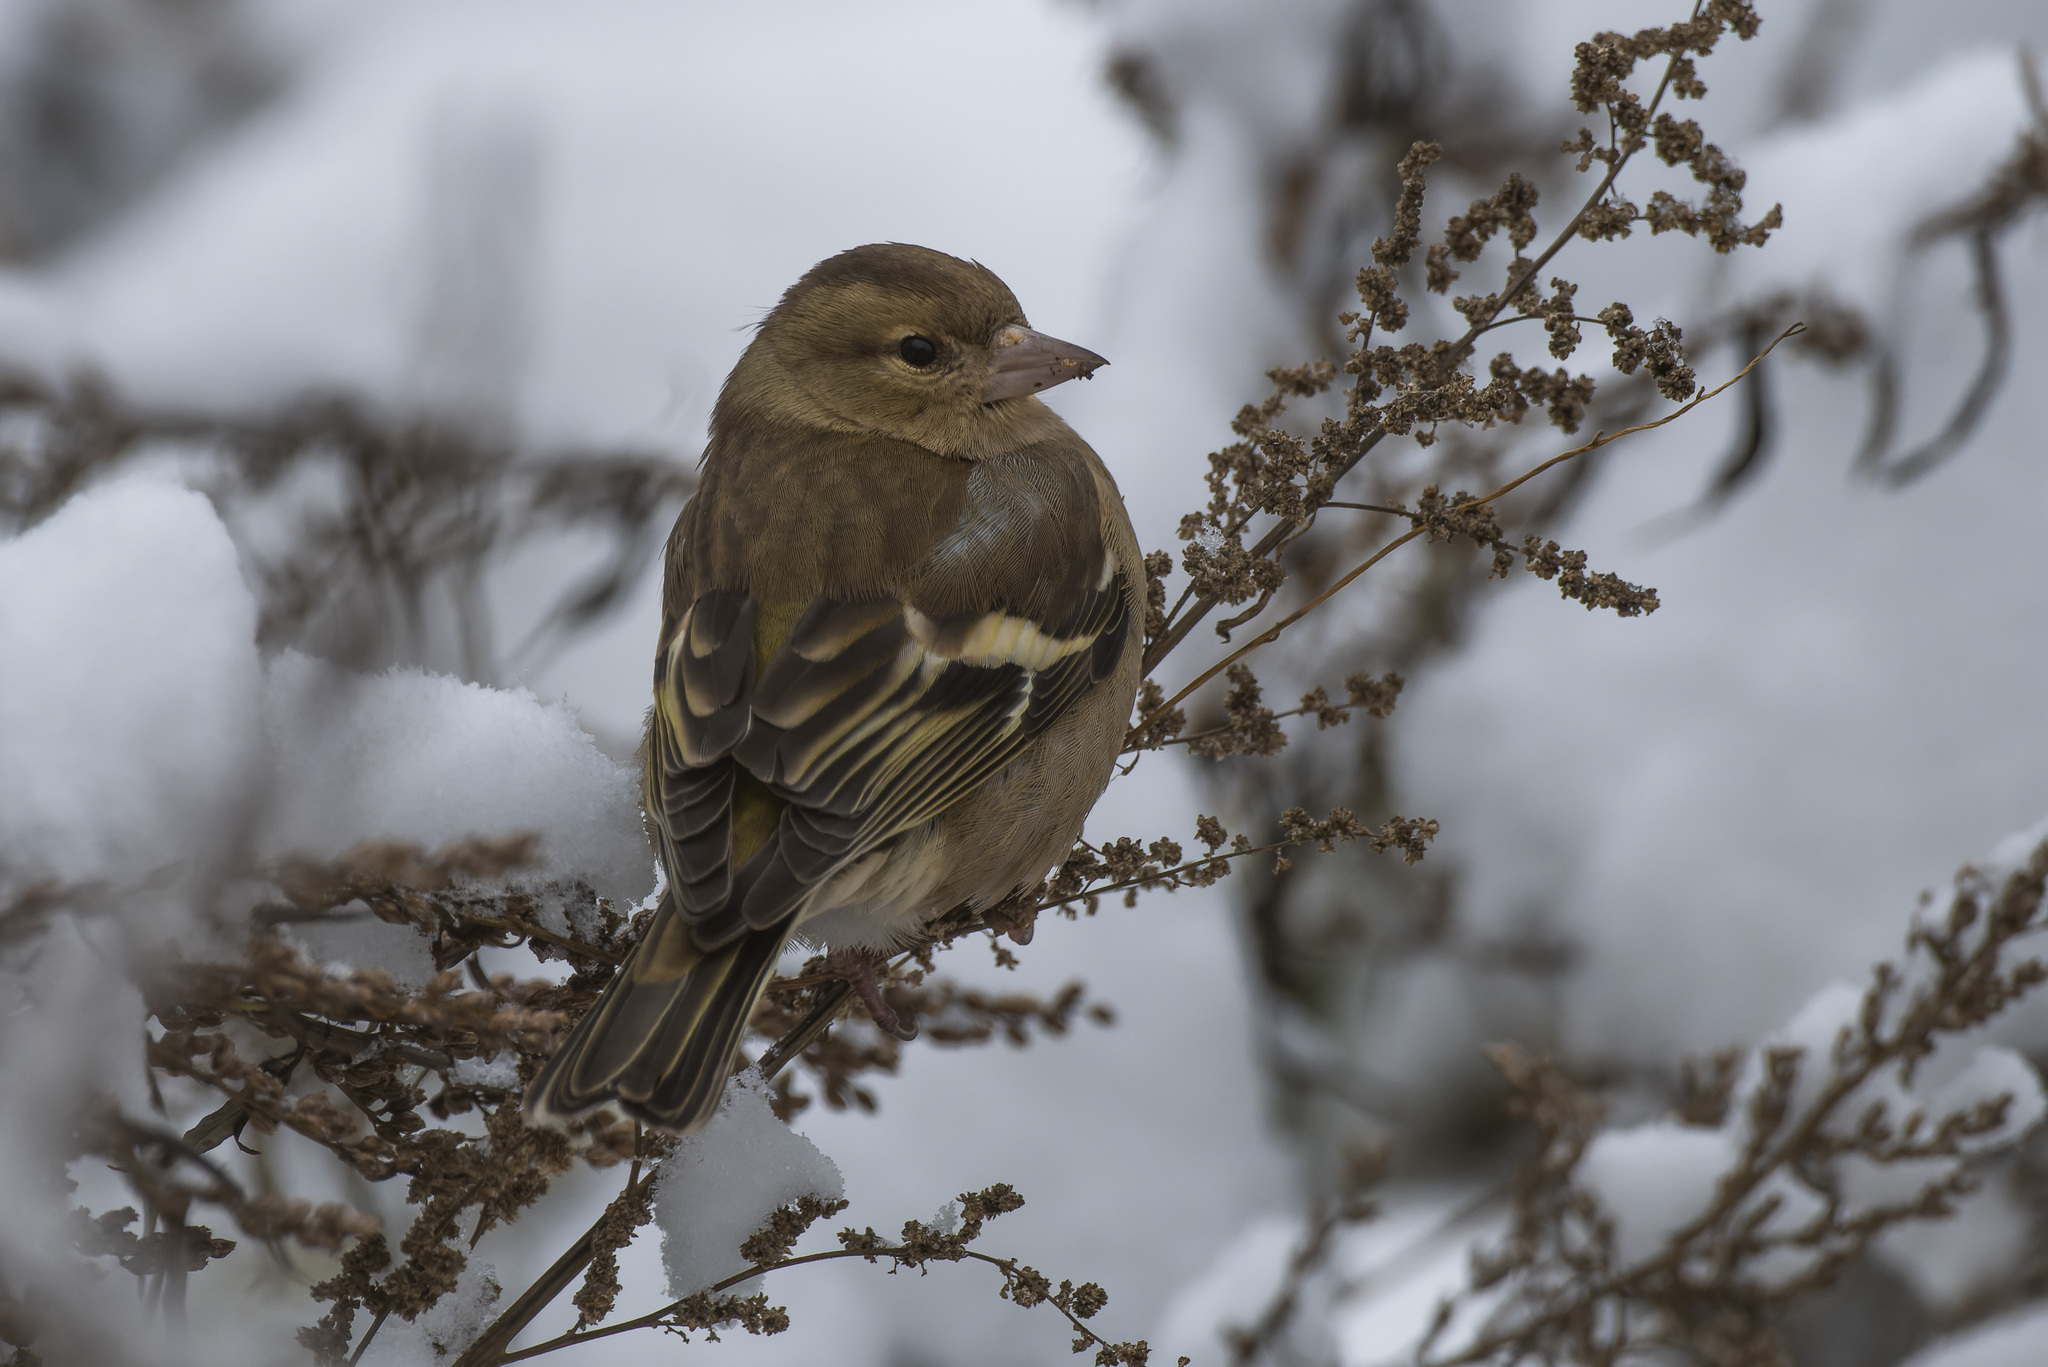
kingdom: Animalia
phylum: Chordata
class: Aves
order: Passeriformes
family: Fringillidae
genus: Fringilla
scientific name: Fringilla coelebs
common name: Common chaffinch
